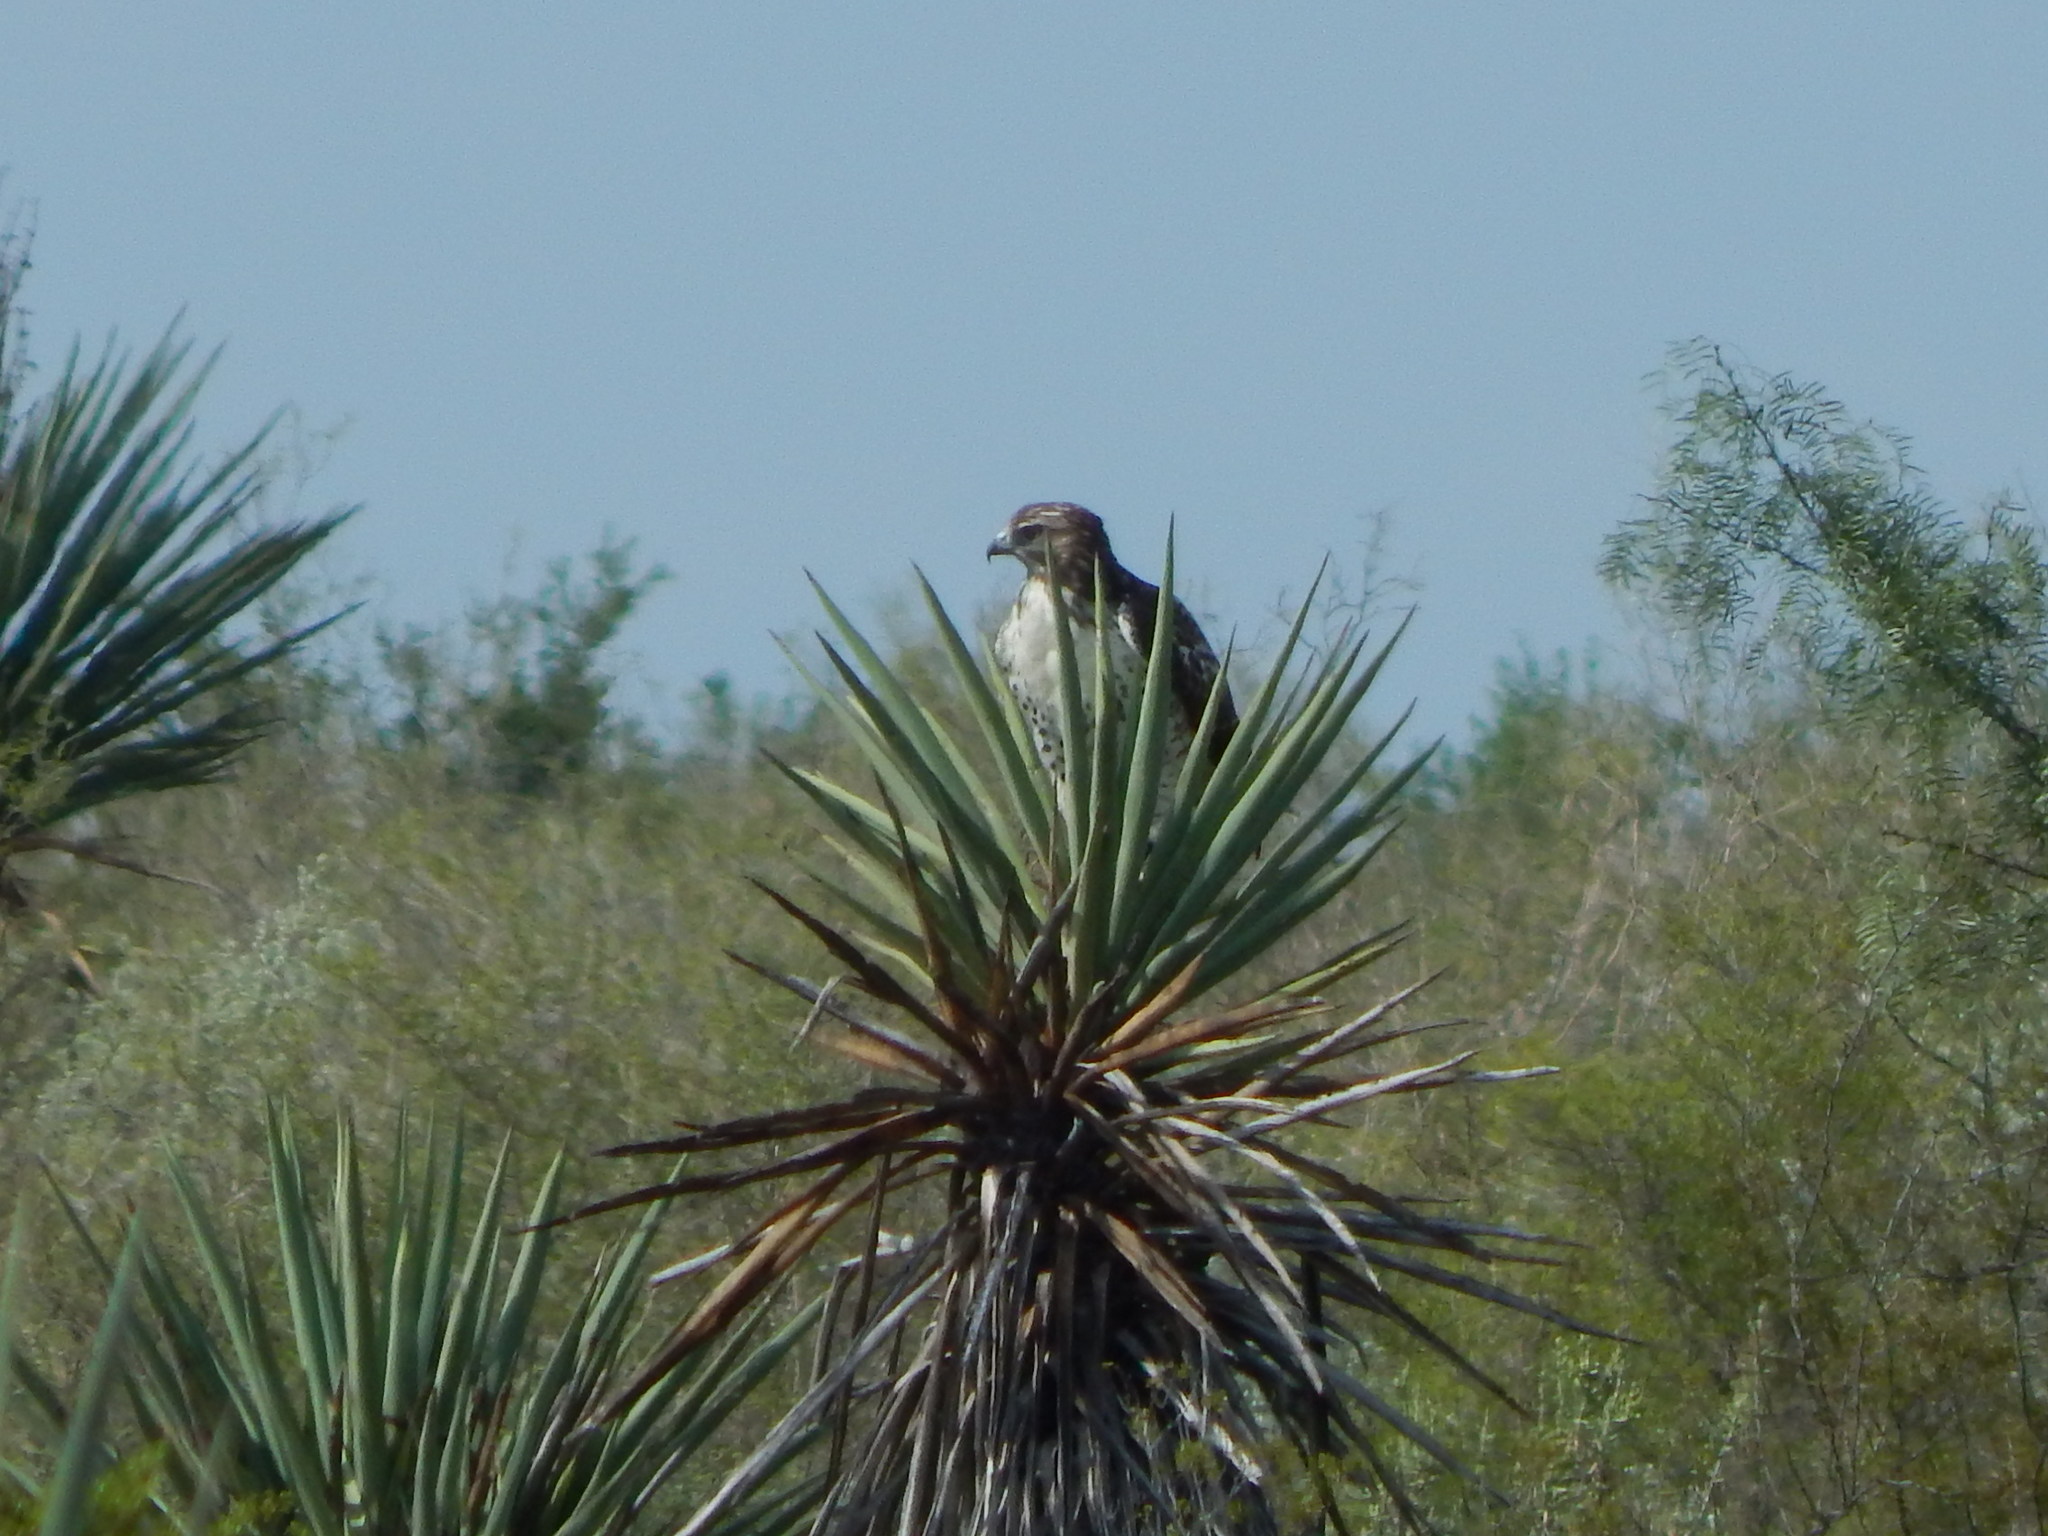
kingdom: Animalia
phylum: Chordata
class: Aves
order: Accipitriformes
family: Accipitridae
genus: Buteo
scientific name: Buteo jamaicensis
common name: Red-tailed hawk
